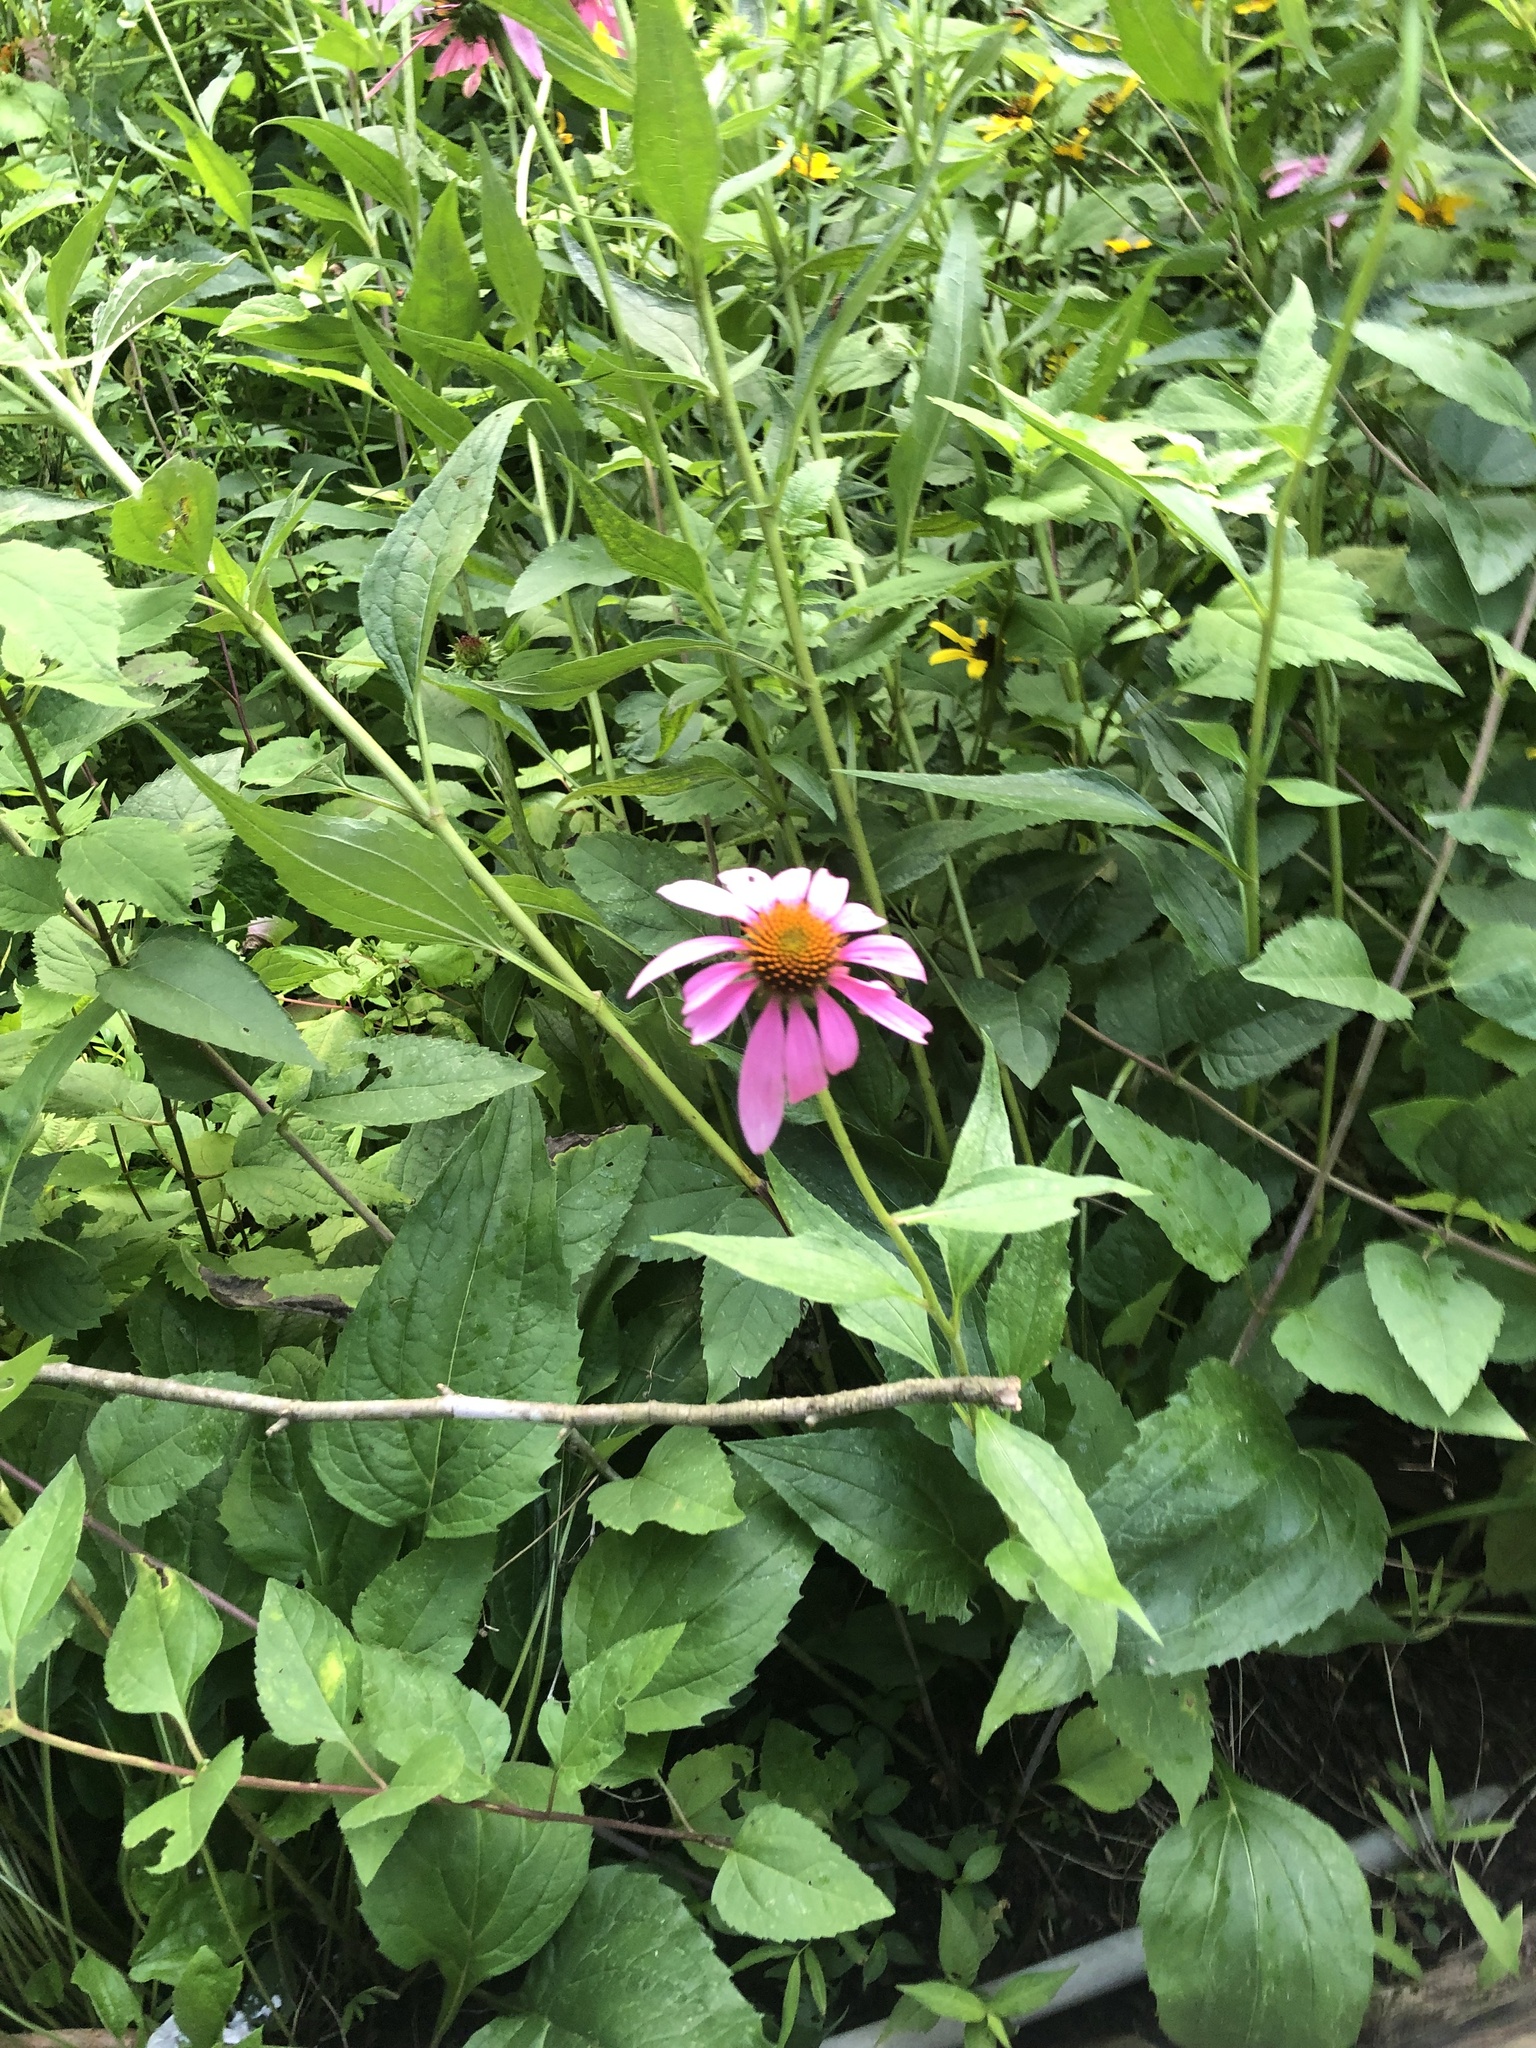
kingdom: Plantae
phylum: Tracheophyta
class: Magnoliopsida
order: Asterales
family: Asteraceae
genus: Echinacea
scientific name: Echinacea purpurea
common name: Broad-leaved purple coneflower
